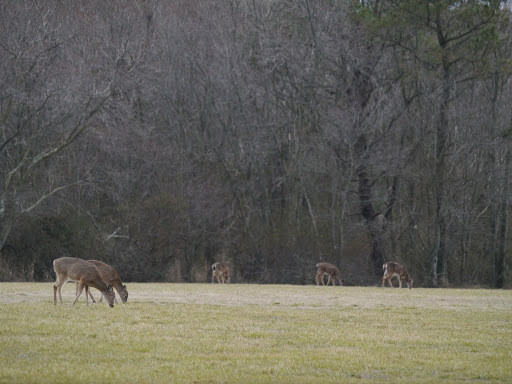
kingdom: Animalia
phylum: Chordata
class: Mammalia
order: Artiodactyla
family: Cervidae
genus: Odocoileus
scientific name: Odocoileus virginianus
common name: White-tailed deer
